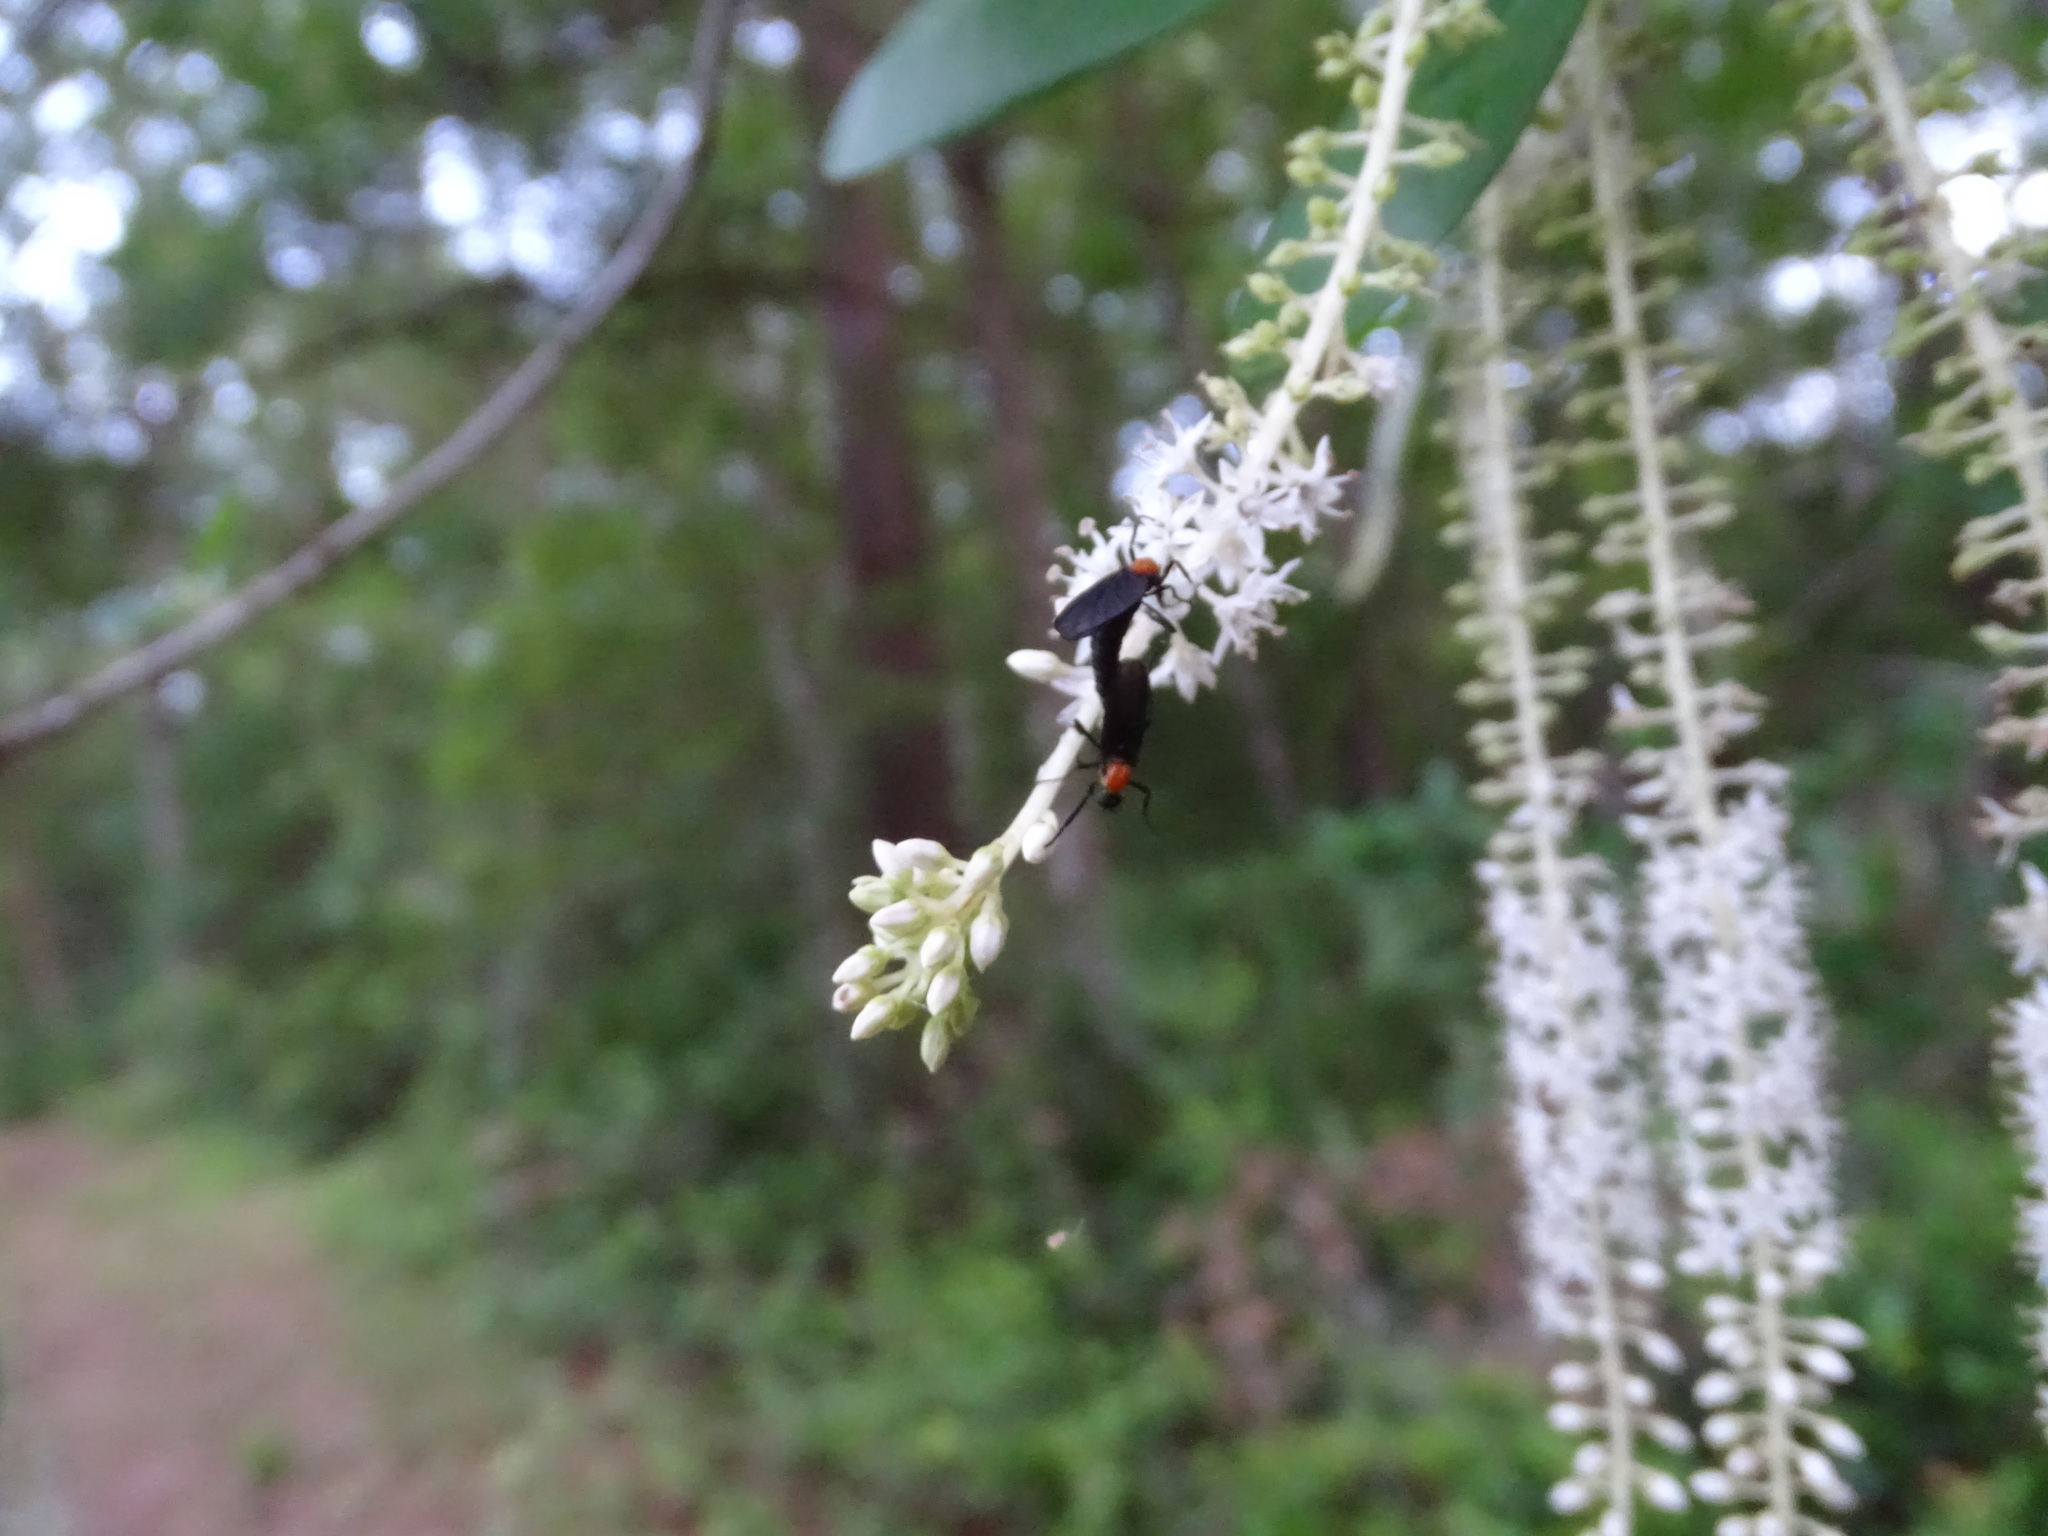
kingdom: Plantae
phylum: Tracheophyta
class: Magnoliopsida
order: Ericales
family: Cyrillaceae
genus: Cyrilla
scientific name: Cyrilla racemiflora
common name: Black titi
